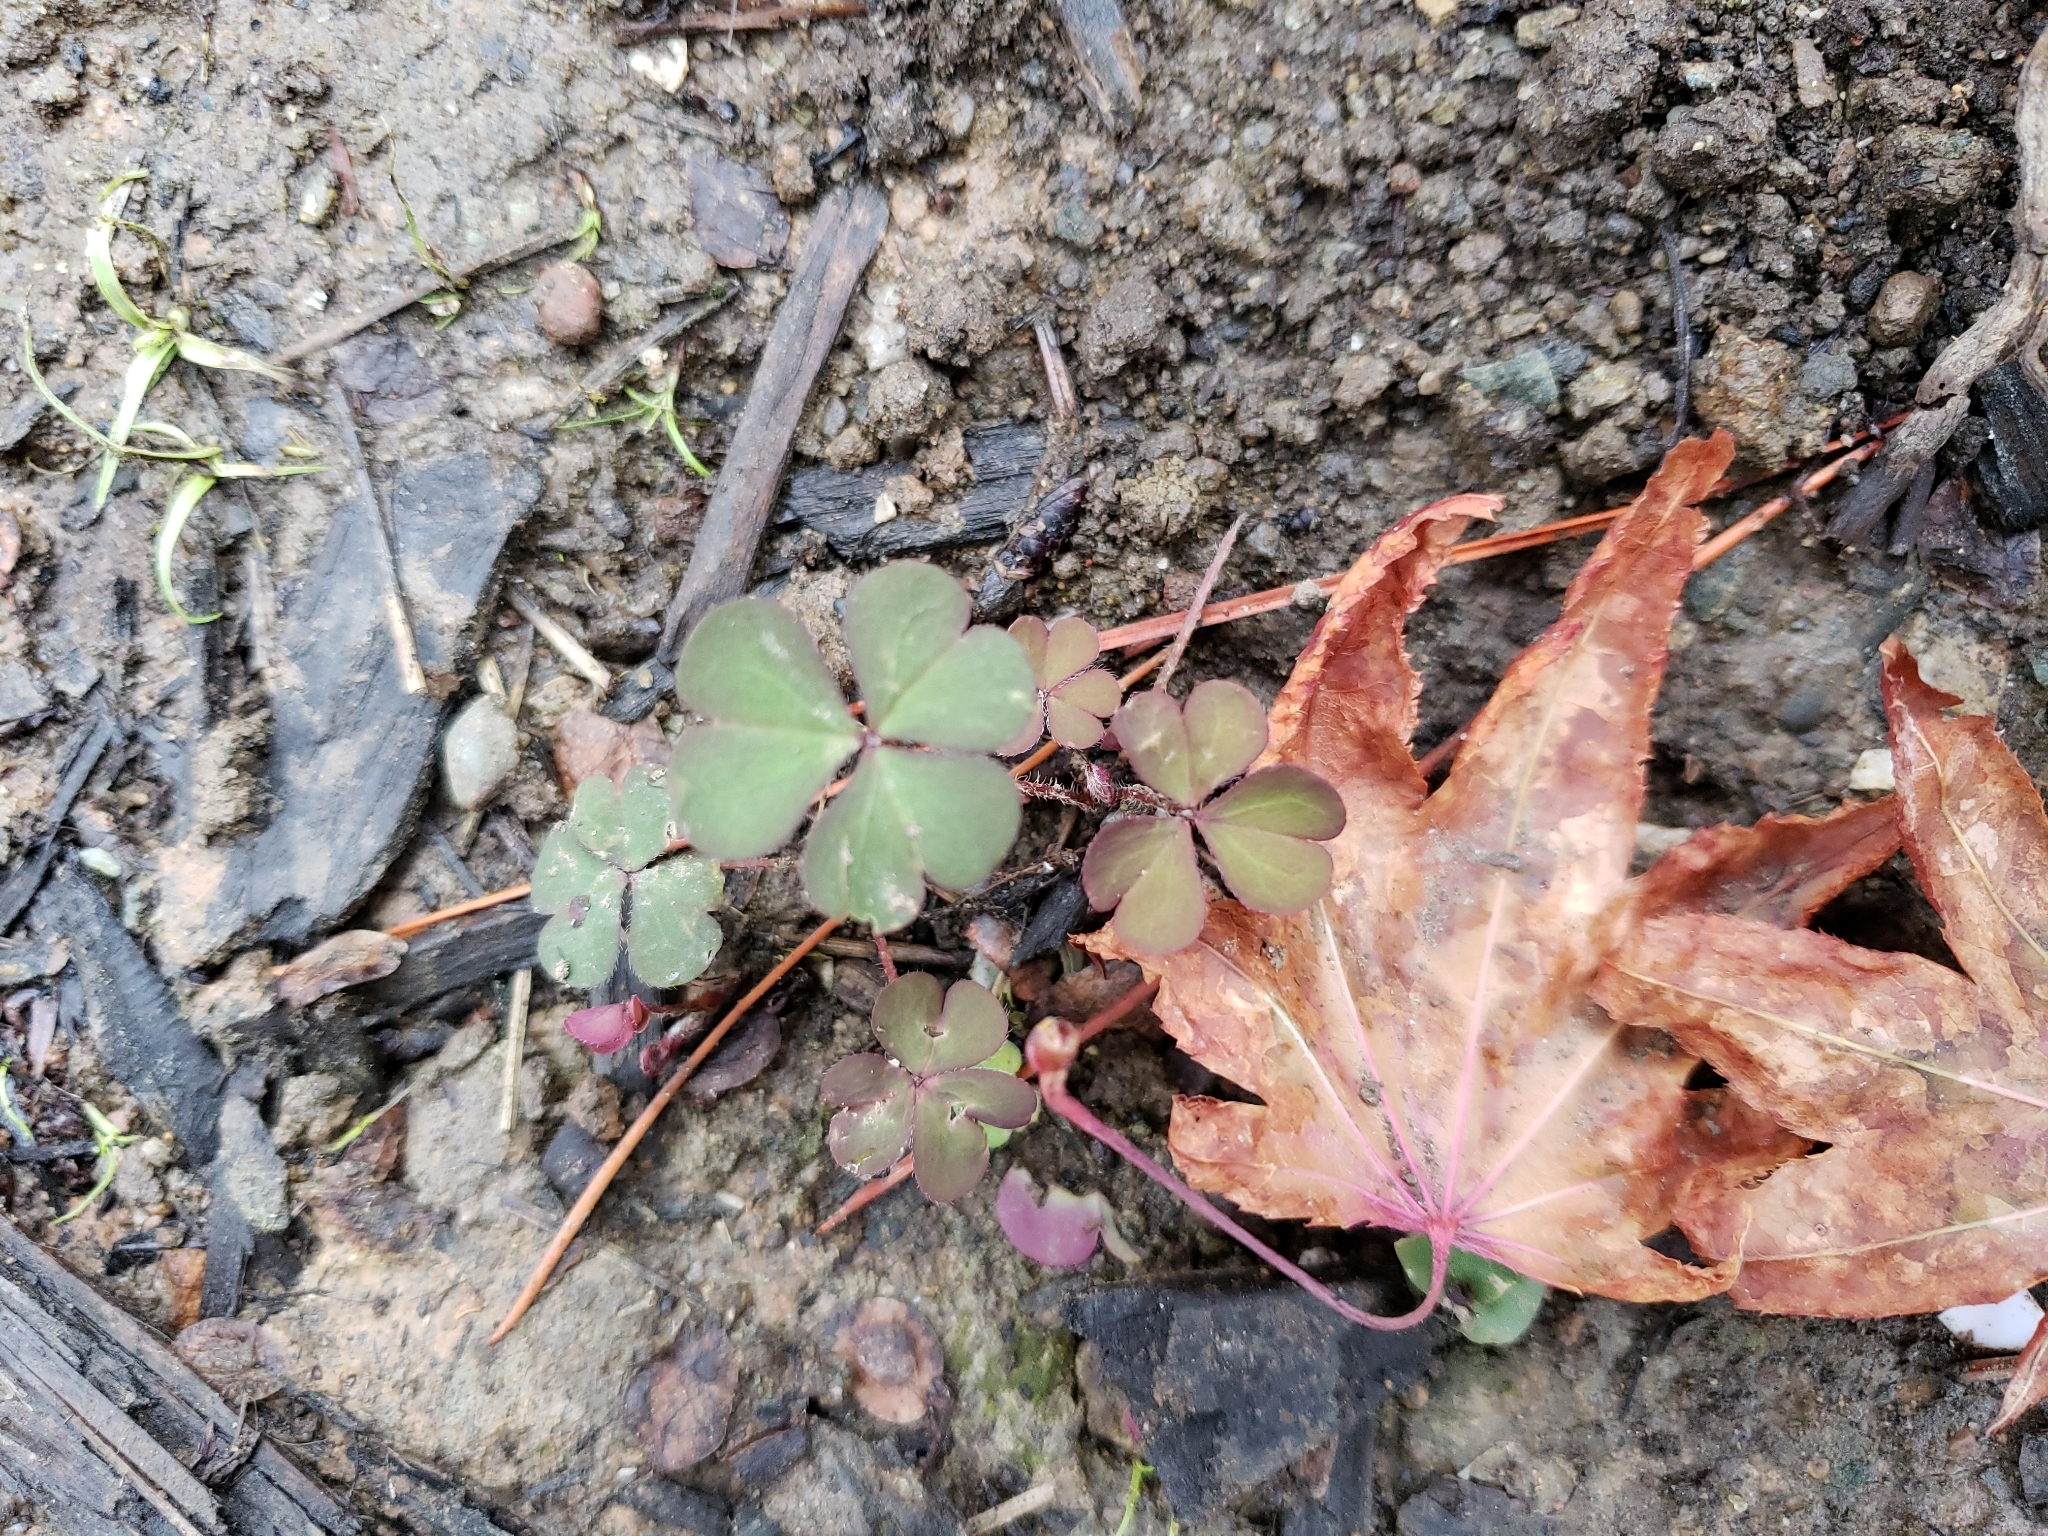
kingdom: Plantae
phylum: Tracheophyta
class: Magnoliopsida
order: Oxalidales
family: Oxalidaceae
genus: Oxalis
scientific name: Oxalis corniculata
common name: Procumbent yellow-sorrel
